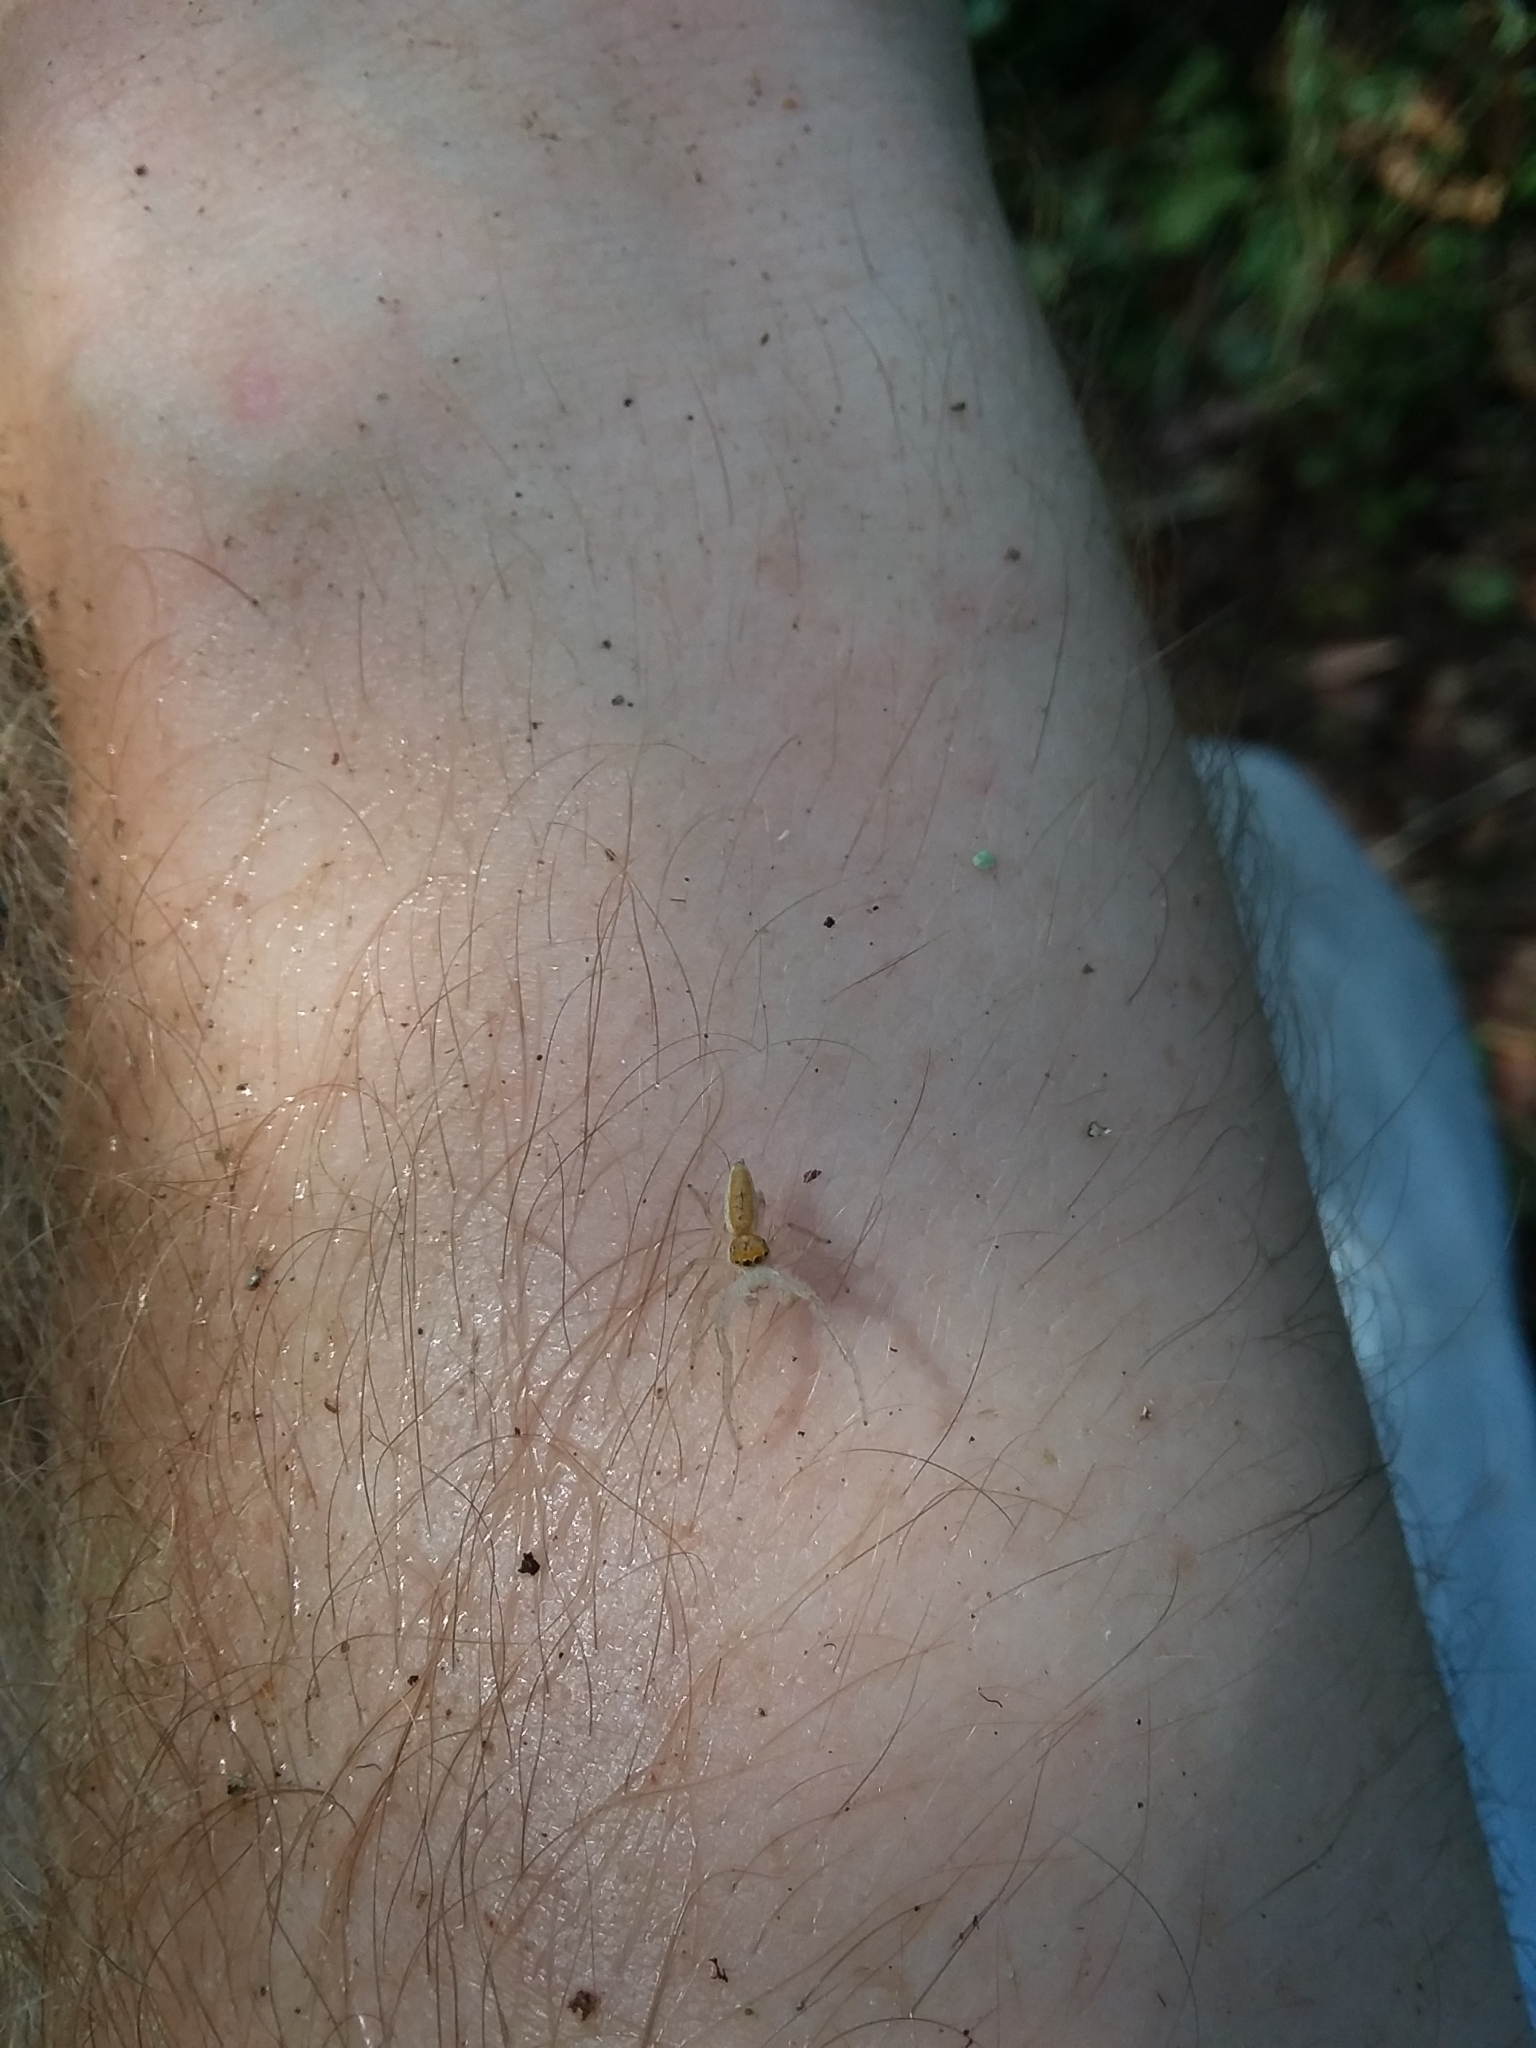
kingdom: Animalia
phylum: Arthropoda
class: Arachnida
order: Araneae
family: Salticidae
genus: Hentzia
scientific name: Hentzia mitrata
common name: White-jawed jumping spider
